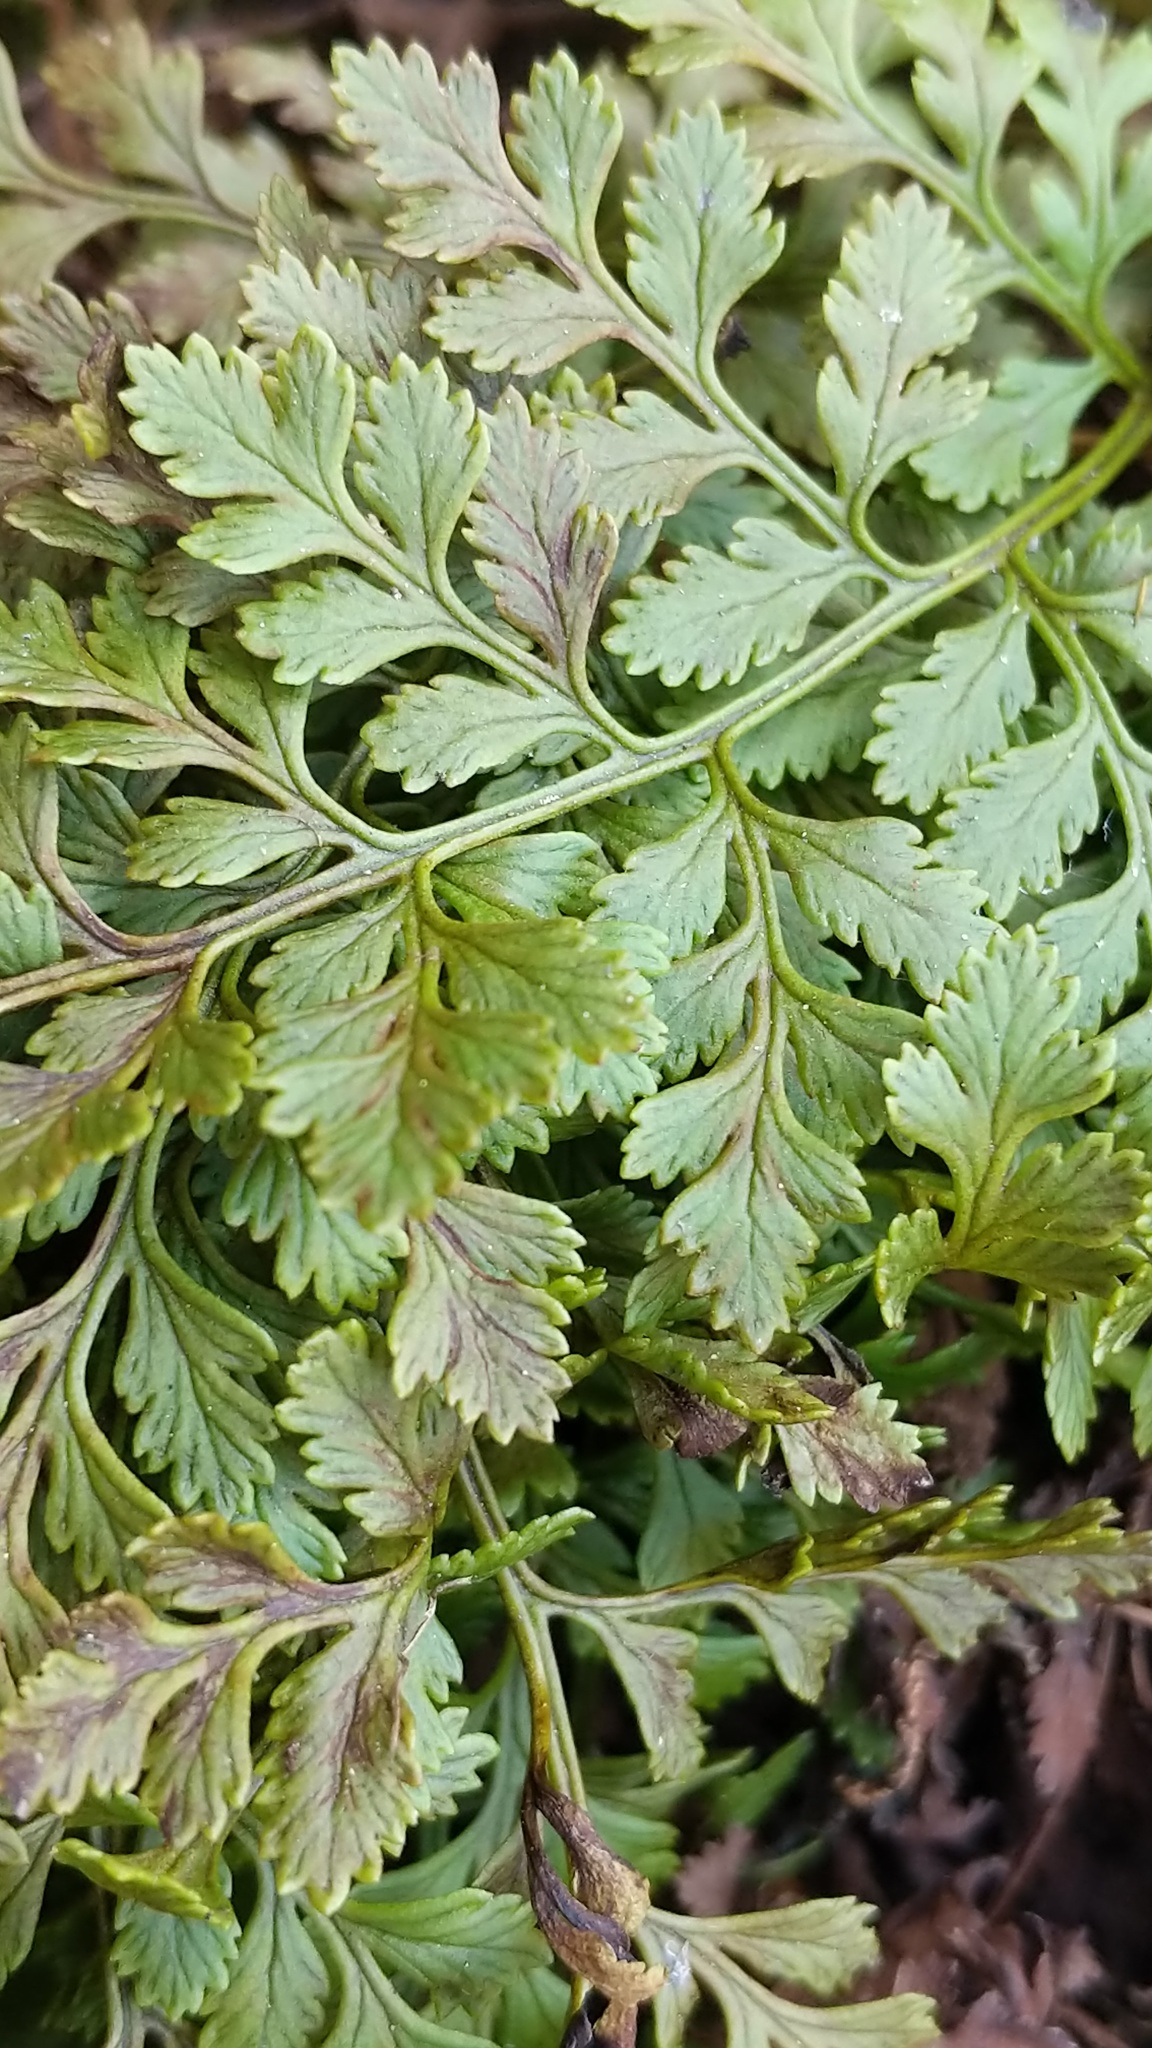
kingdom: Plantae
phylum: Tracheophyta
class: Polypodiopsida
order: Polypodiales
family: Pteridaceae
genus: Cryptogramma
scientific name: Cryptogramma acrostichoides
